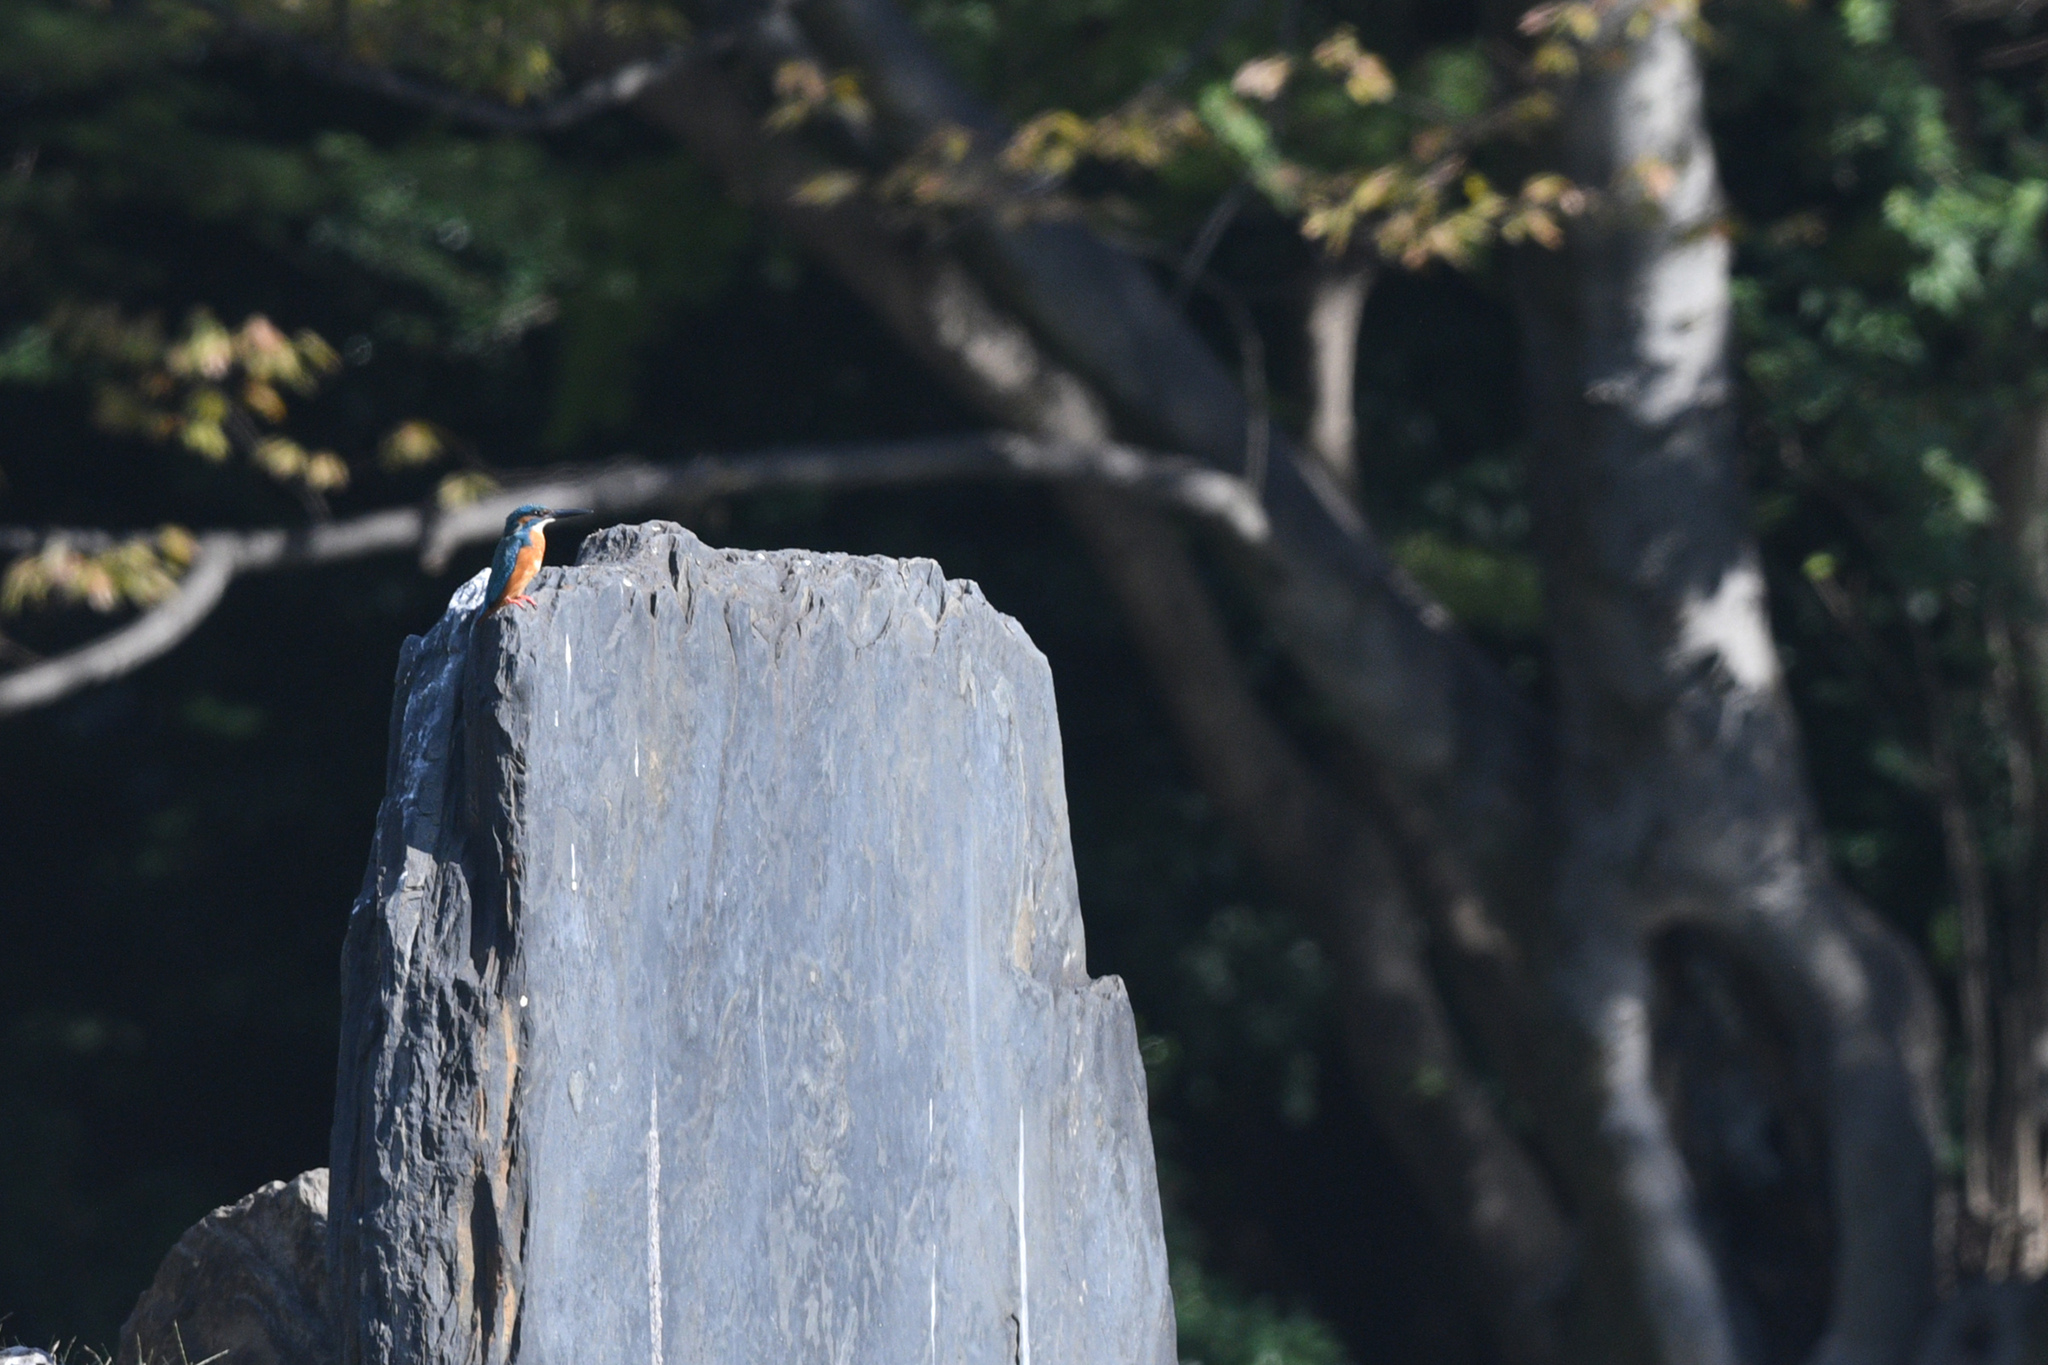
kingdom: Animalia
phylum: Chordata
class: Aves
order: Coraciiformes
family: Alcedinidae
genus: Alcedo
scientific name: Alcedo atthis
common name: Common kingfisher
